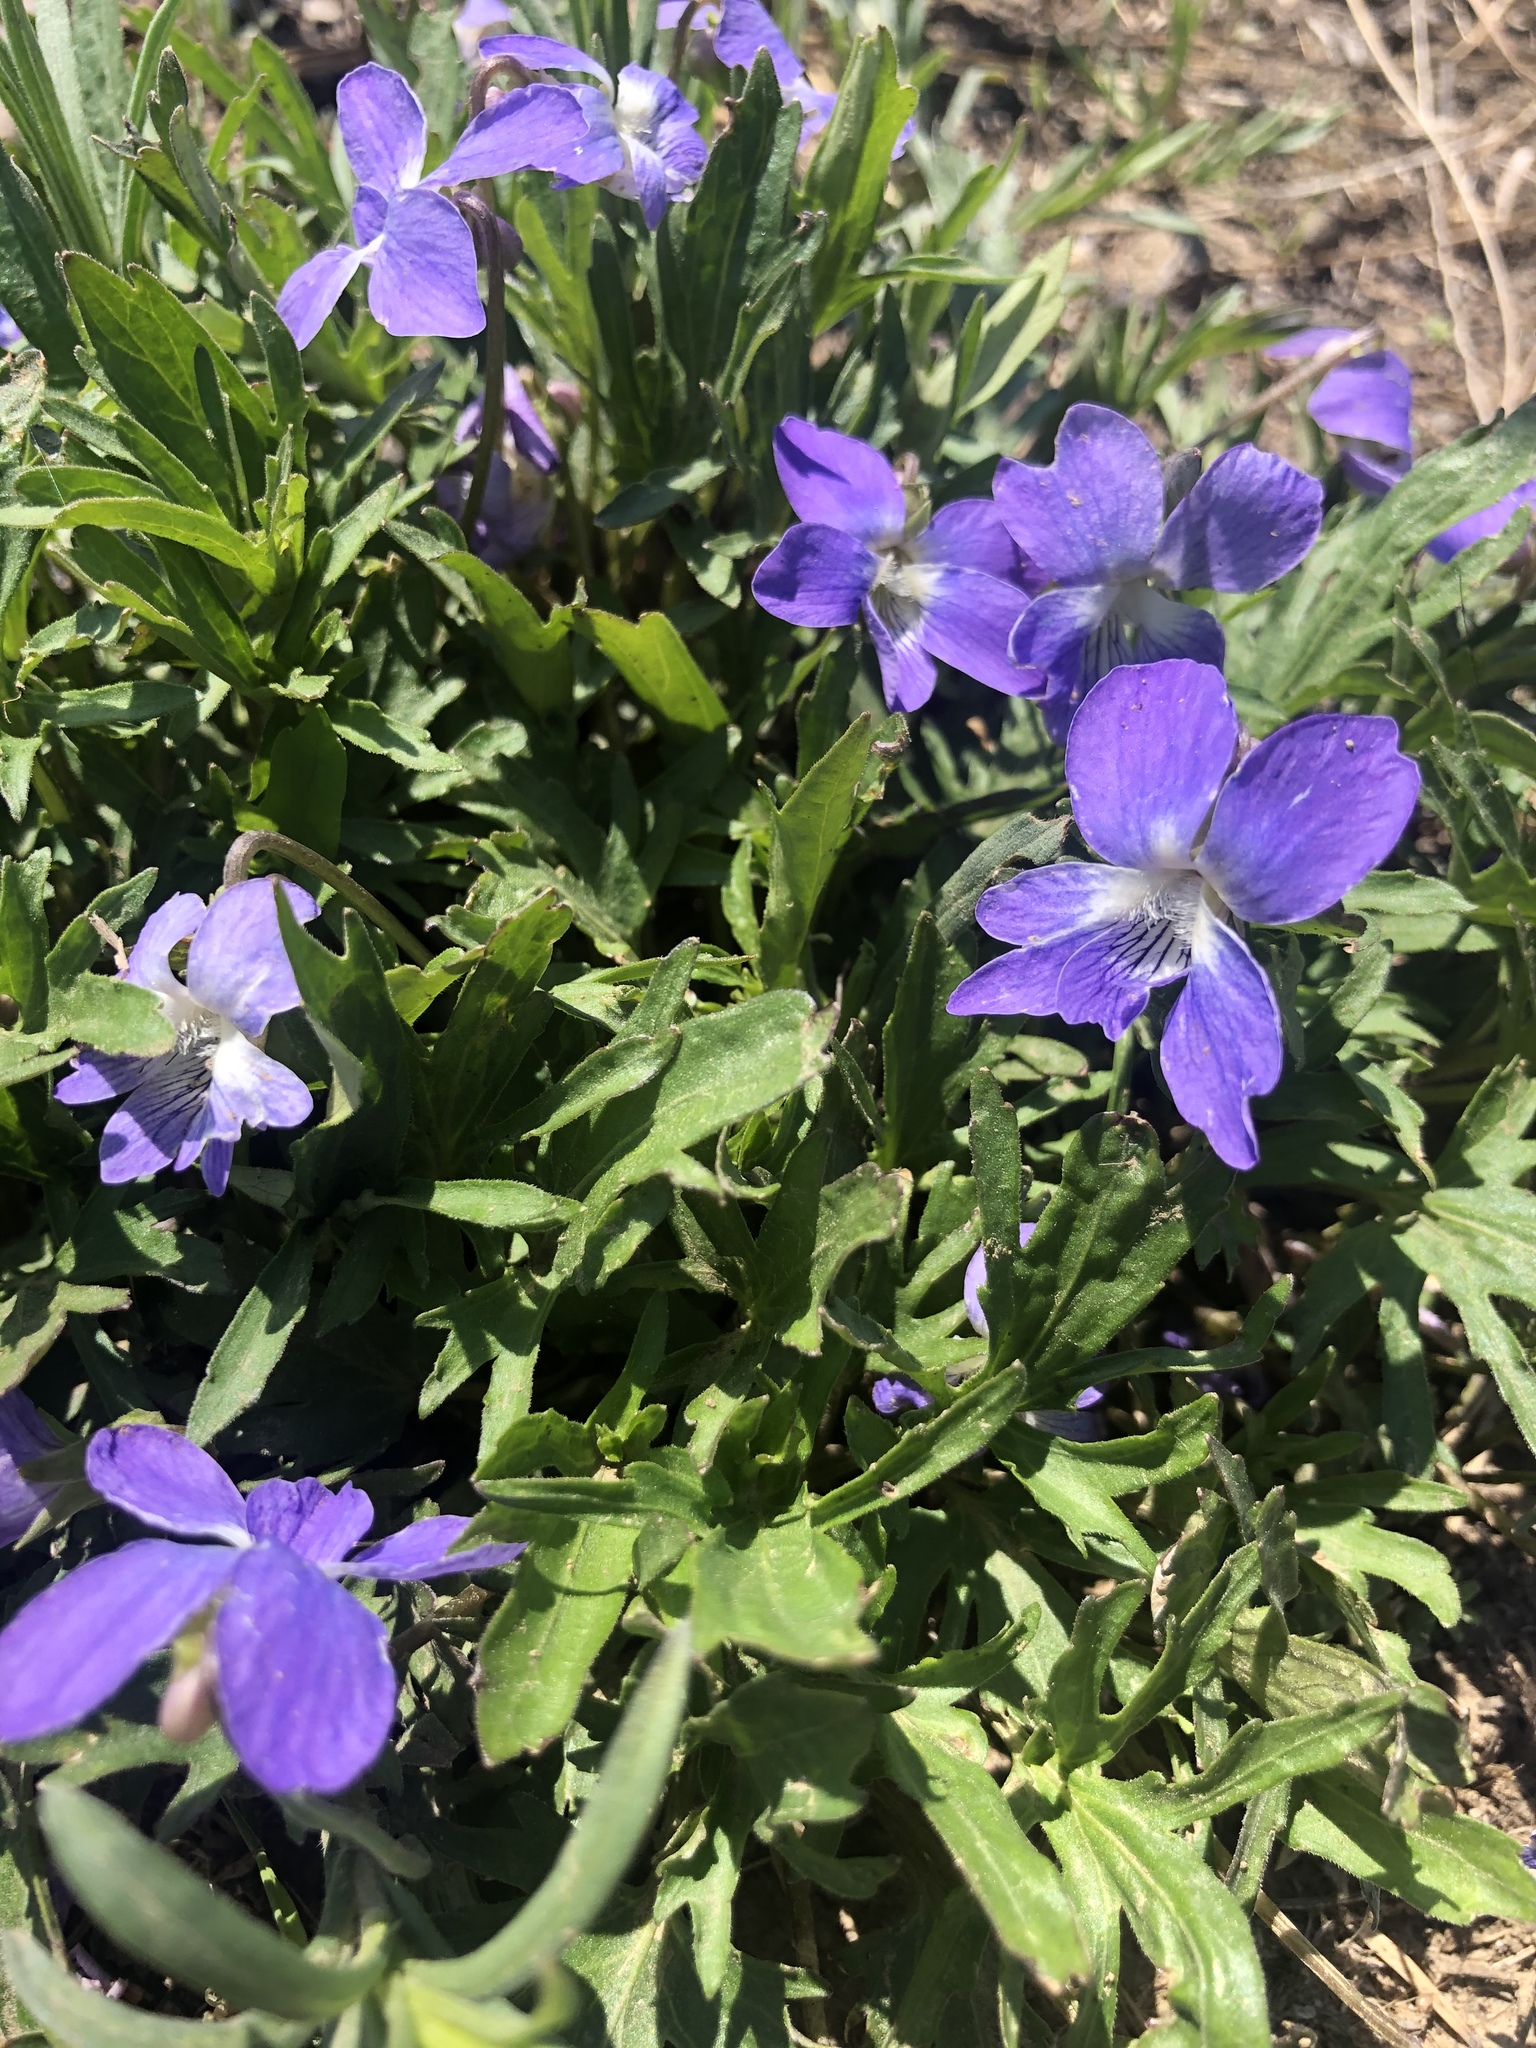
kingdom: Plantae
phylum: Tracheophyta
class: Magnoliopsida
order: Malpighiales
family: Violaceae
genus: Viola
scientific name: Viola pedatifida
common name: Prairie violet
